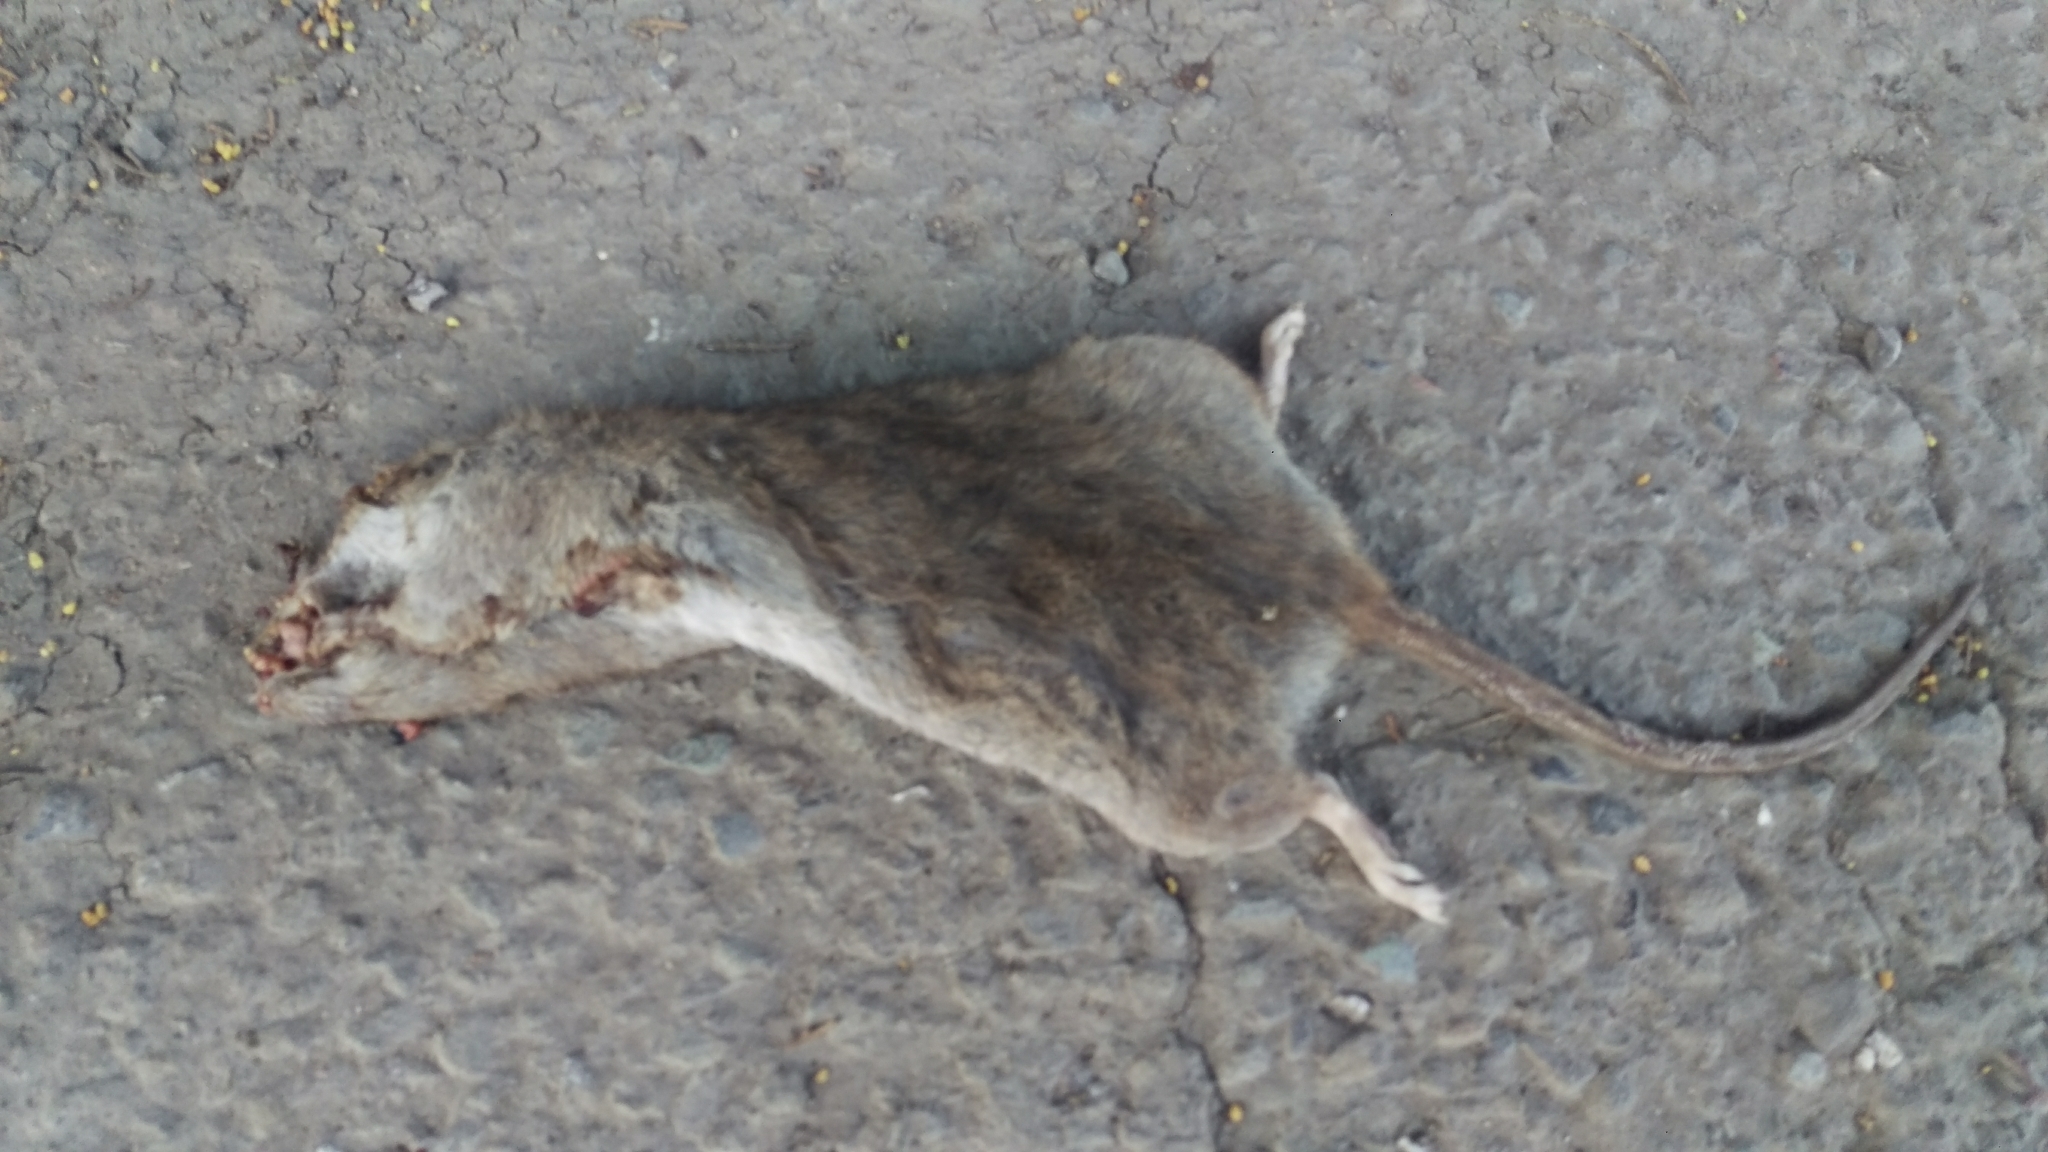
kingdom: Animalia
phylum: Chordata
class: Mammalia
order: Rodentia
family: Muridae
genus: Rattus
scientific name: Rattus norvegicus
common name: Brown rat
